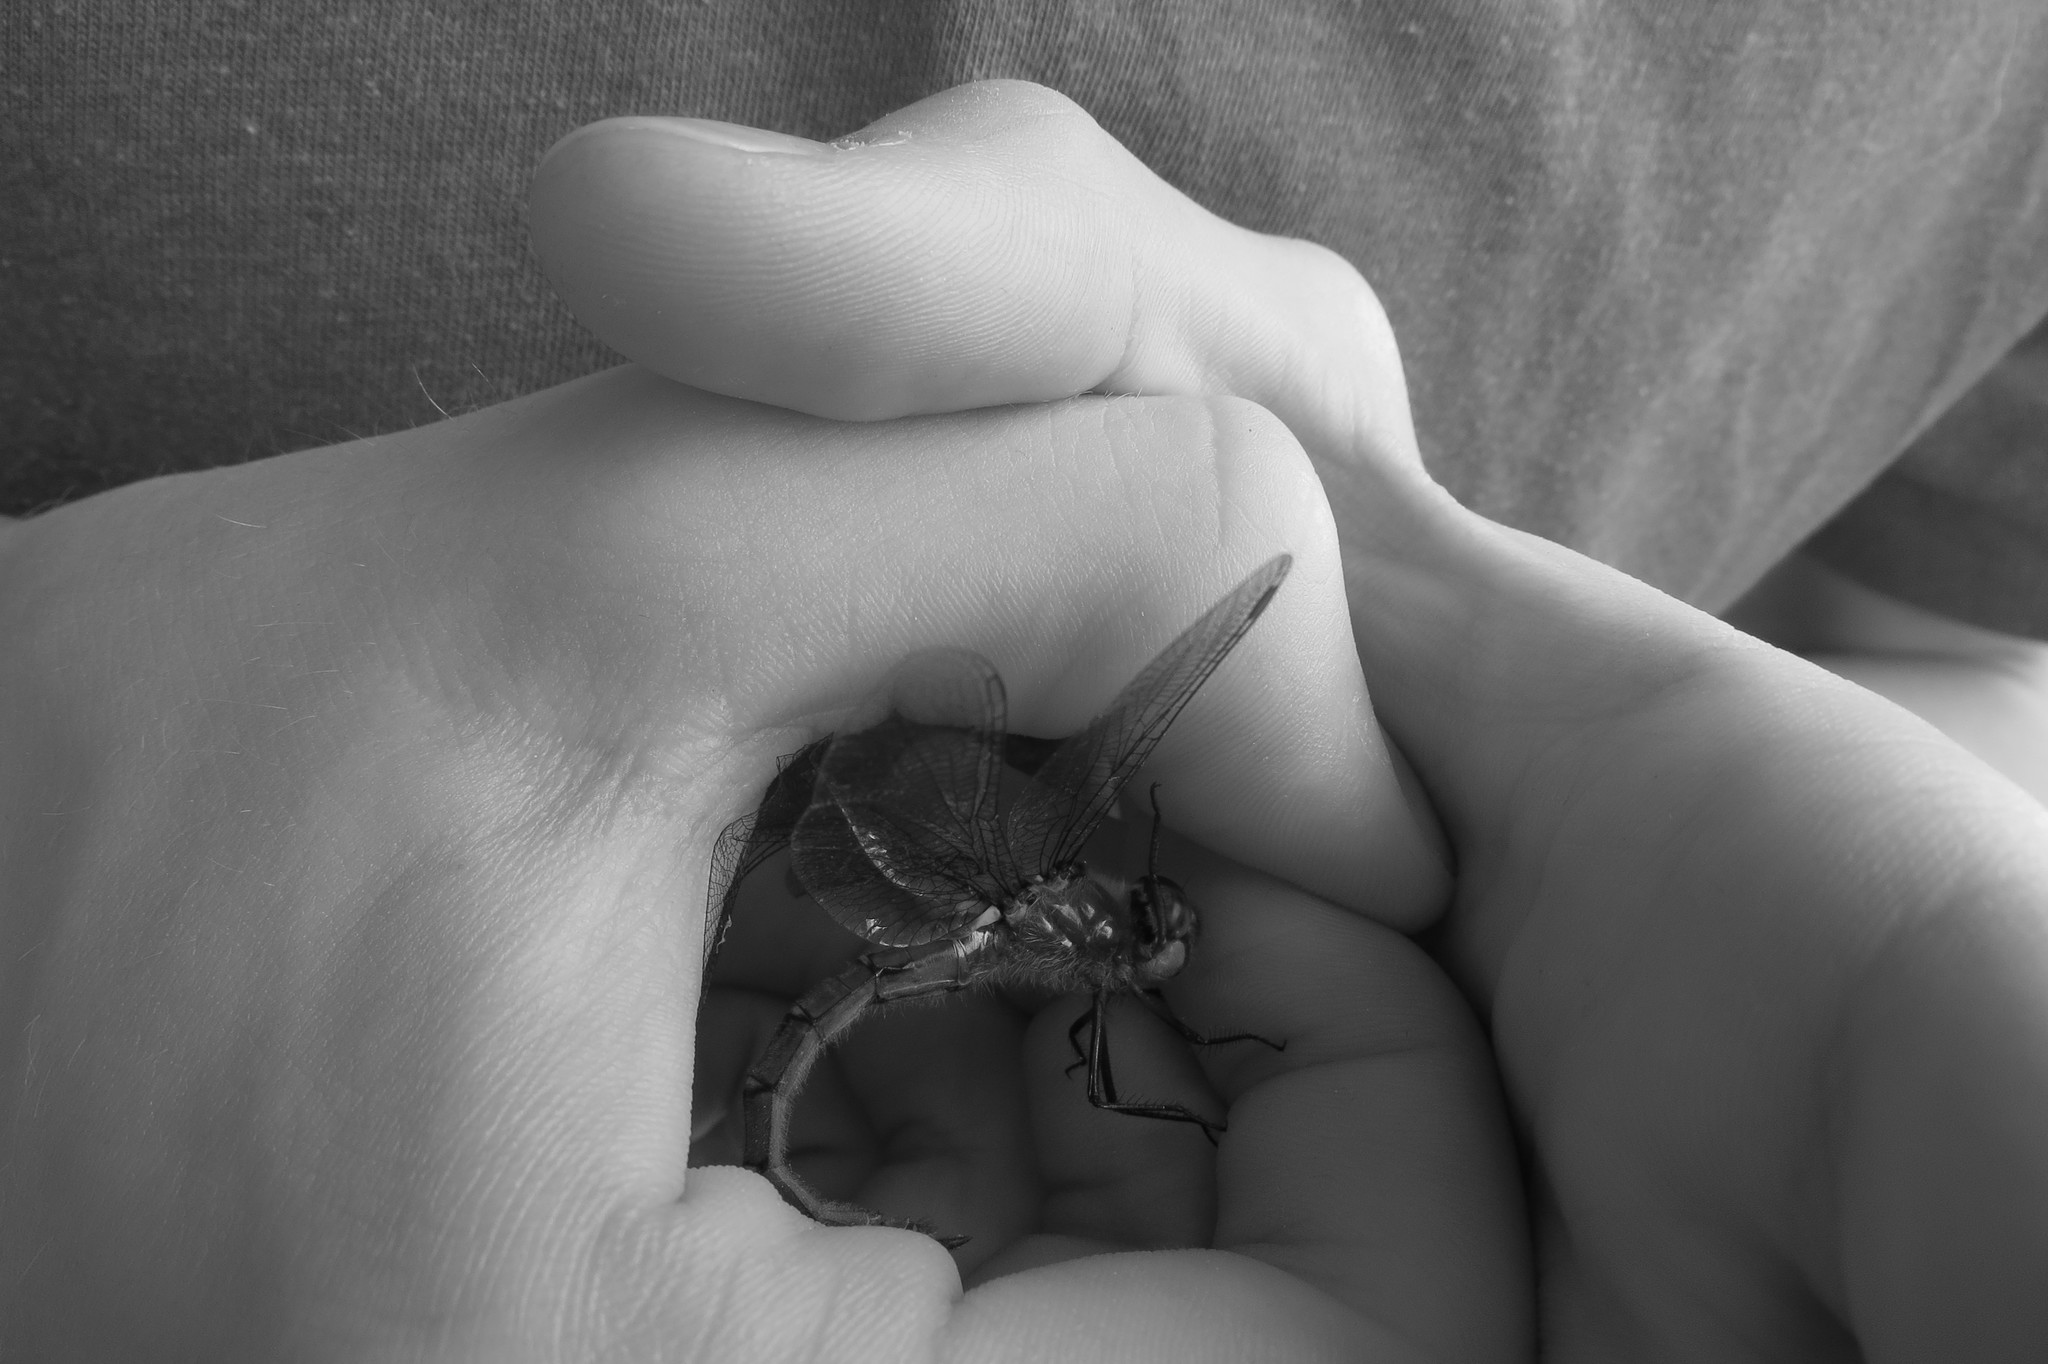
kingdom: Animalia
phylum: Arthropoda
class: Insecta
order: Odonata
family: Corduliidae
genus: Procordulia
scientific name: Procordulia smithii
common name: Ranger dragonfly
